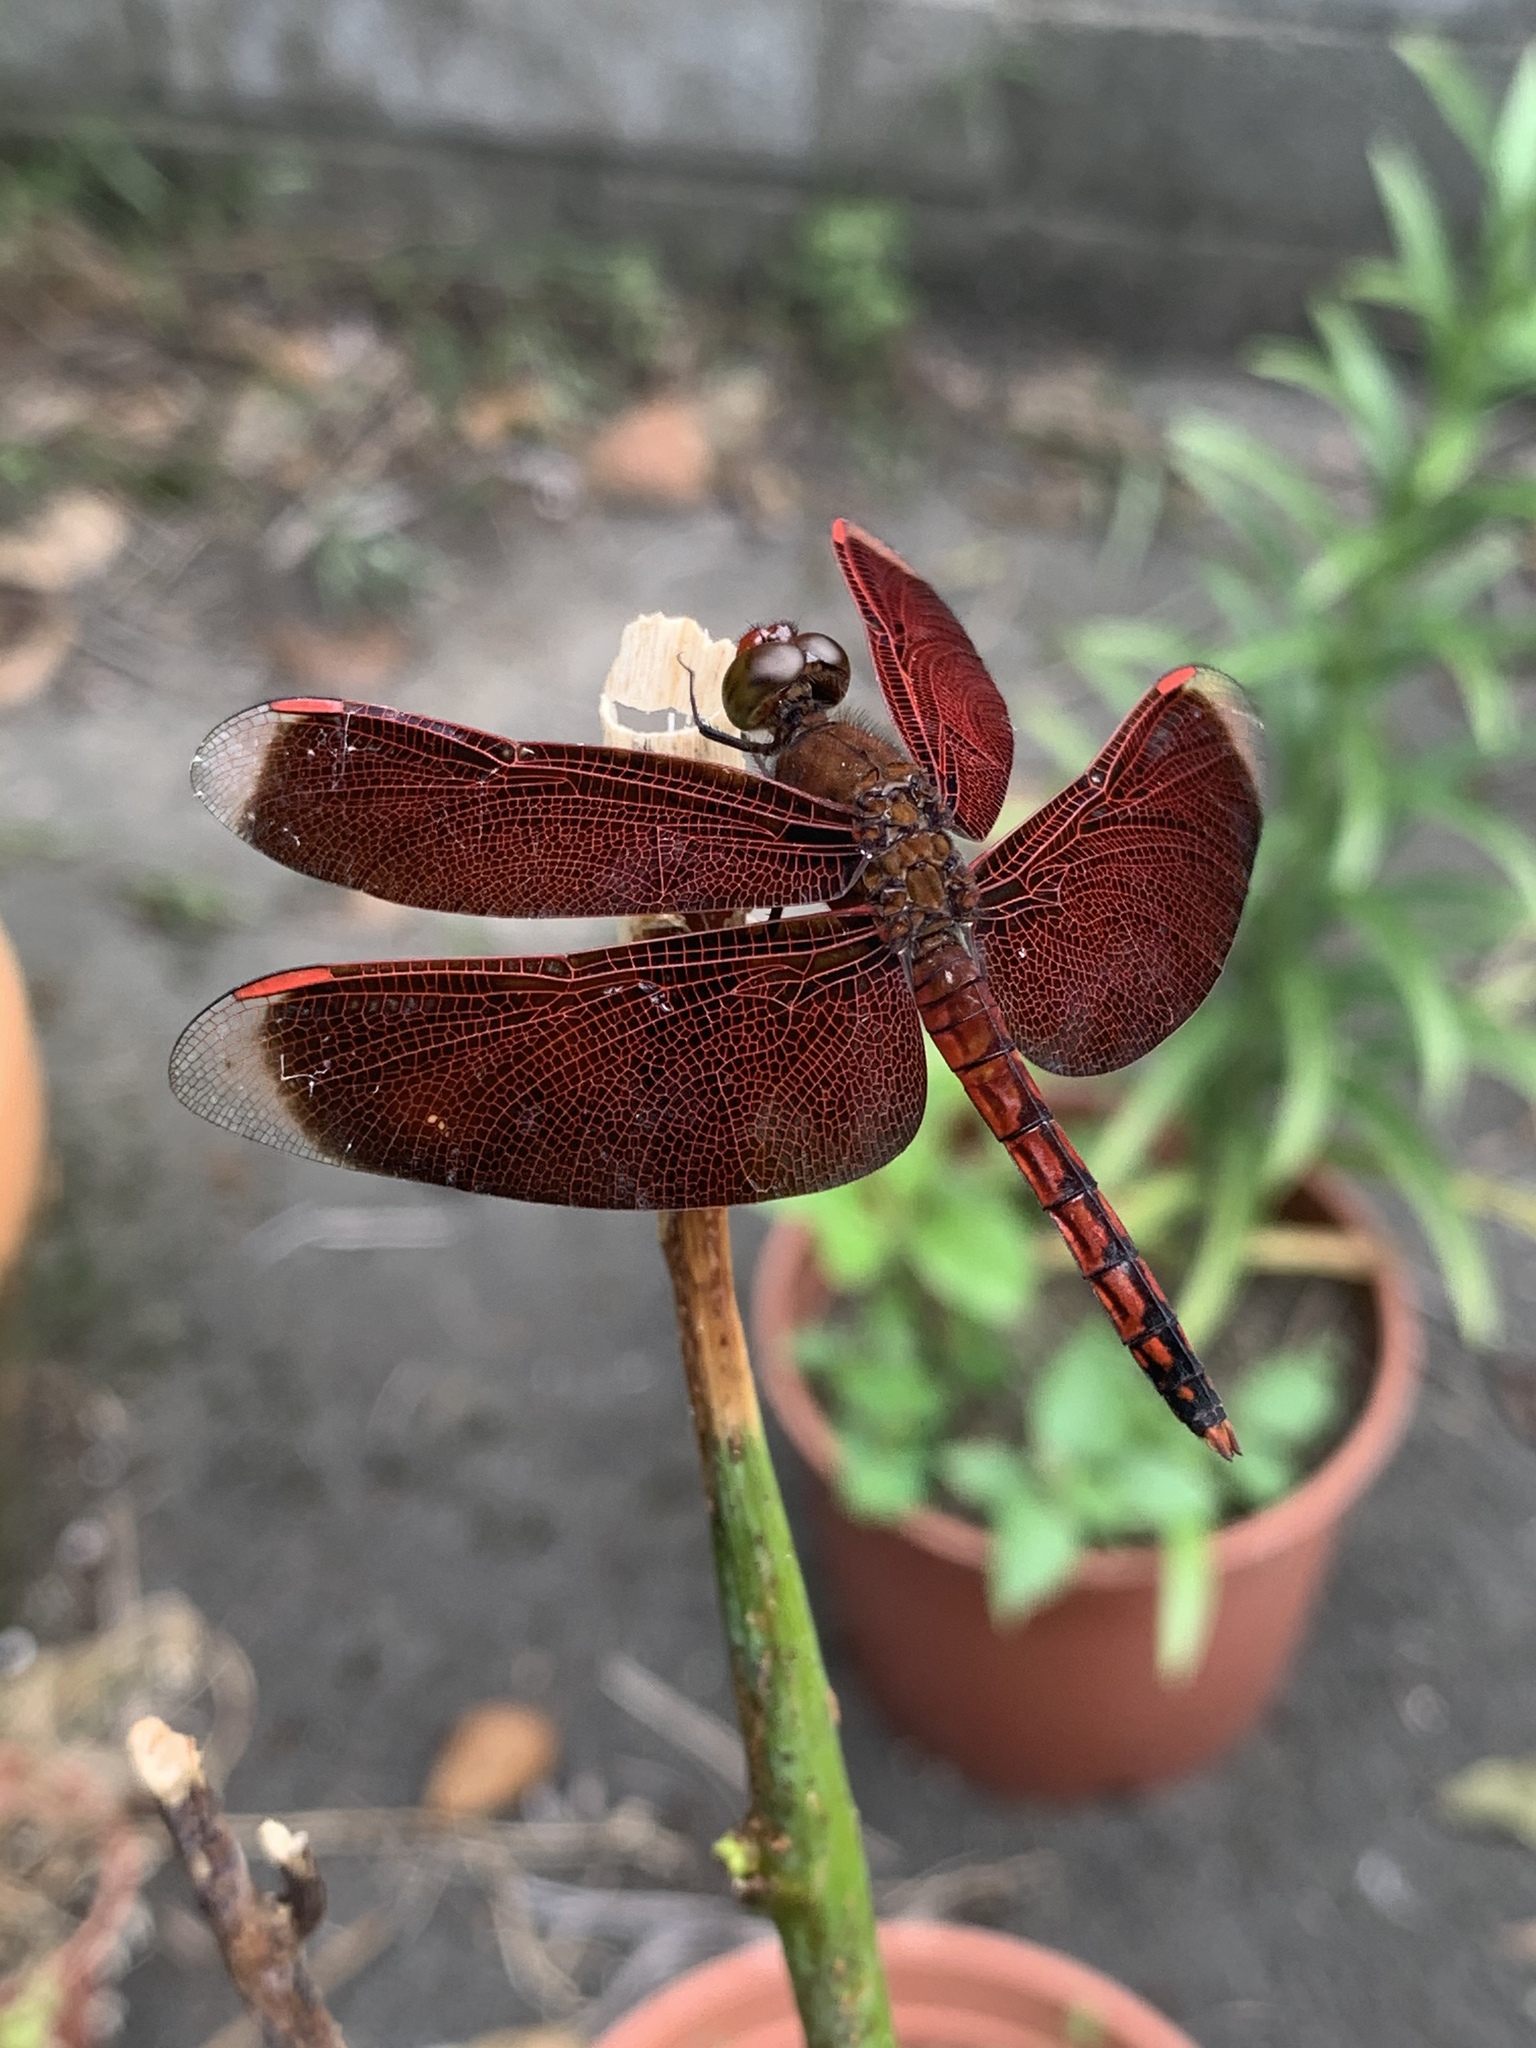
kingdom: Animalia
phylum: Arthropoda
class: Insecta
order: Odonata
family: Libellulidae
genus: Neurothemis
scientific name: Neurothemis taiwanensis
